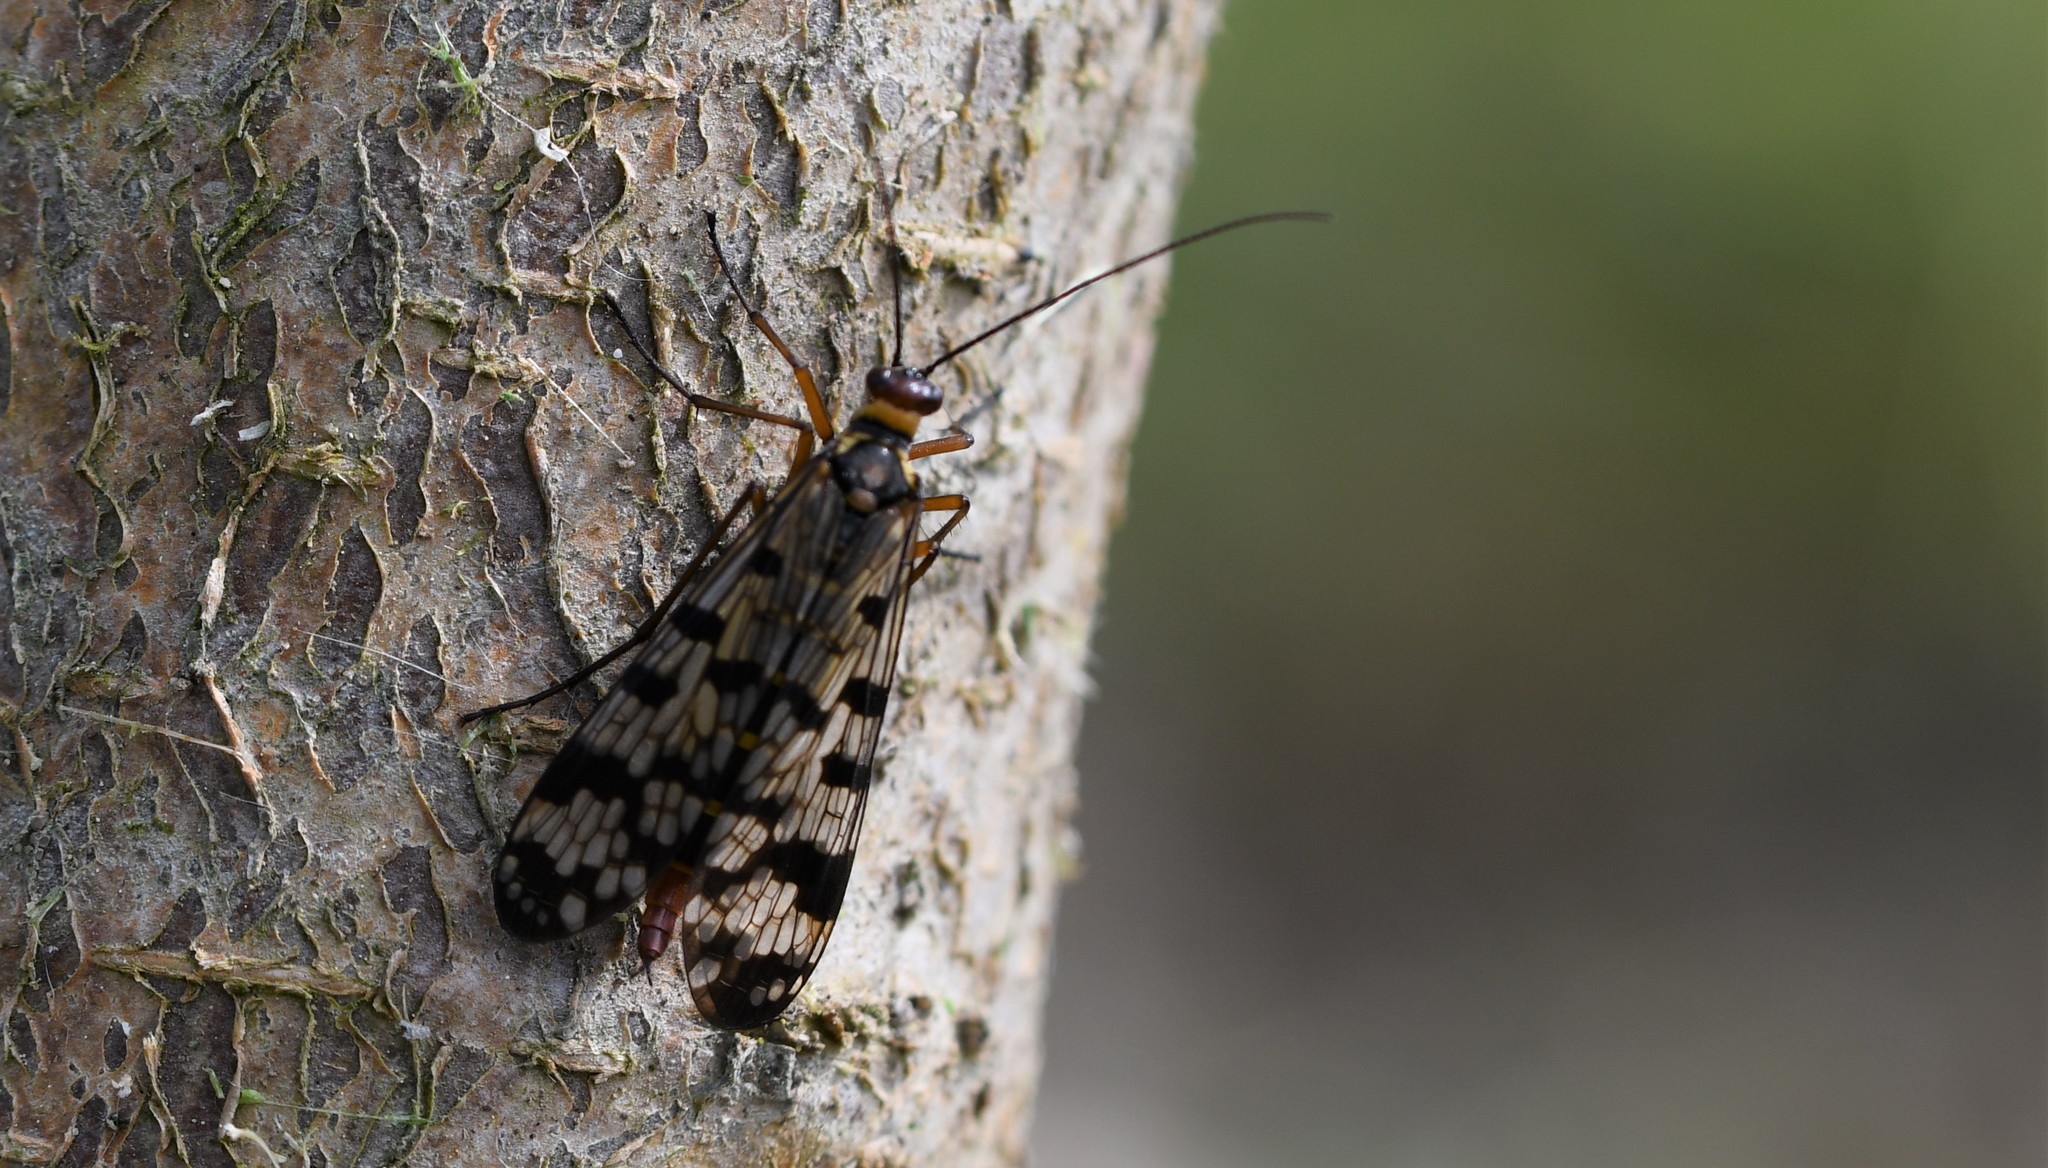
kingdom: Animalia
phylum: Arthropoda
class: Insecta
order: Mecoptera
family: Panorpidae
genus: Panorpa
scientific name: Panorpa meridionalis
